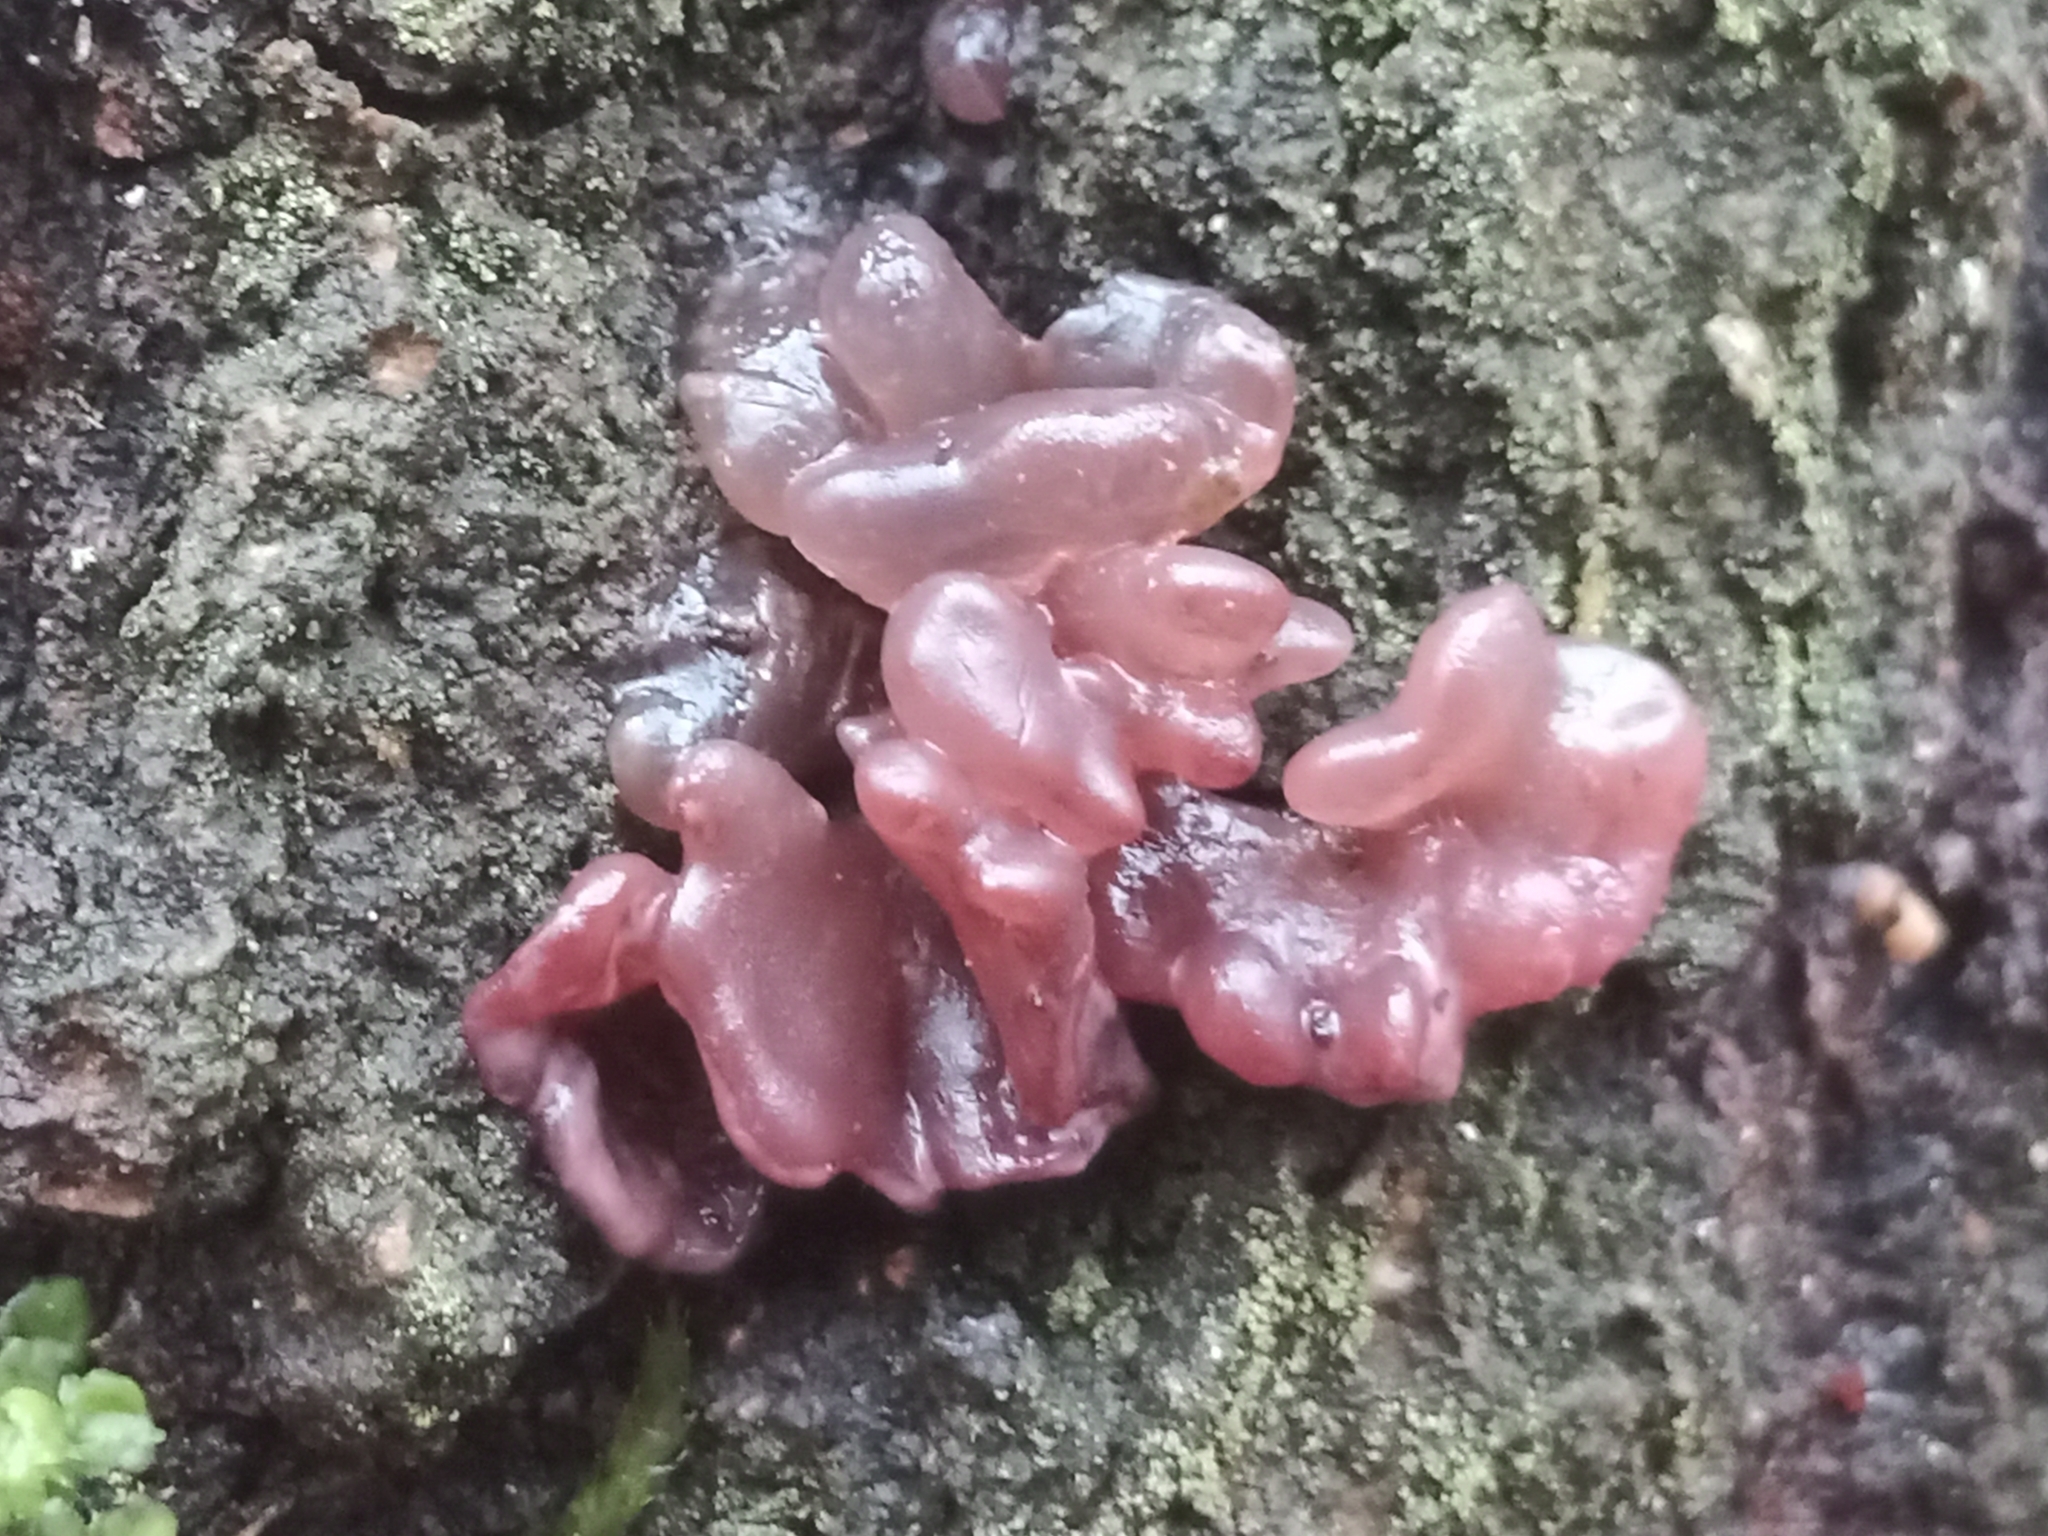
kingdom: Fungi
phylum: Ascomycota
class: Leotiomycetes
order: Helotiales
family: Gelatinodiscaceae
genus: Ascocoryne
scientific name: Ascocoryne sarcoides
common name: Purple jellydisc
